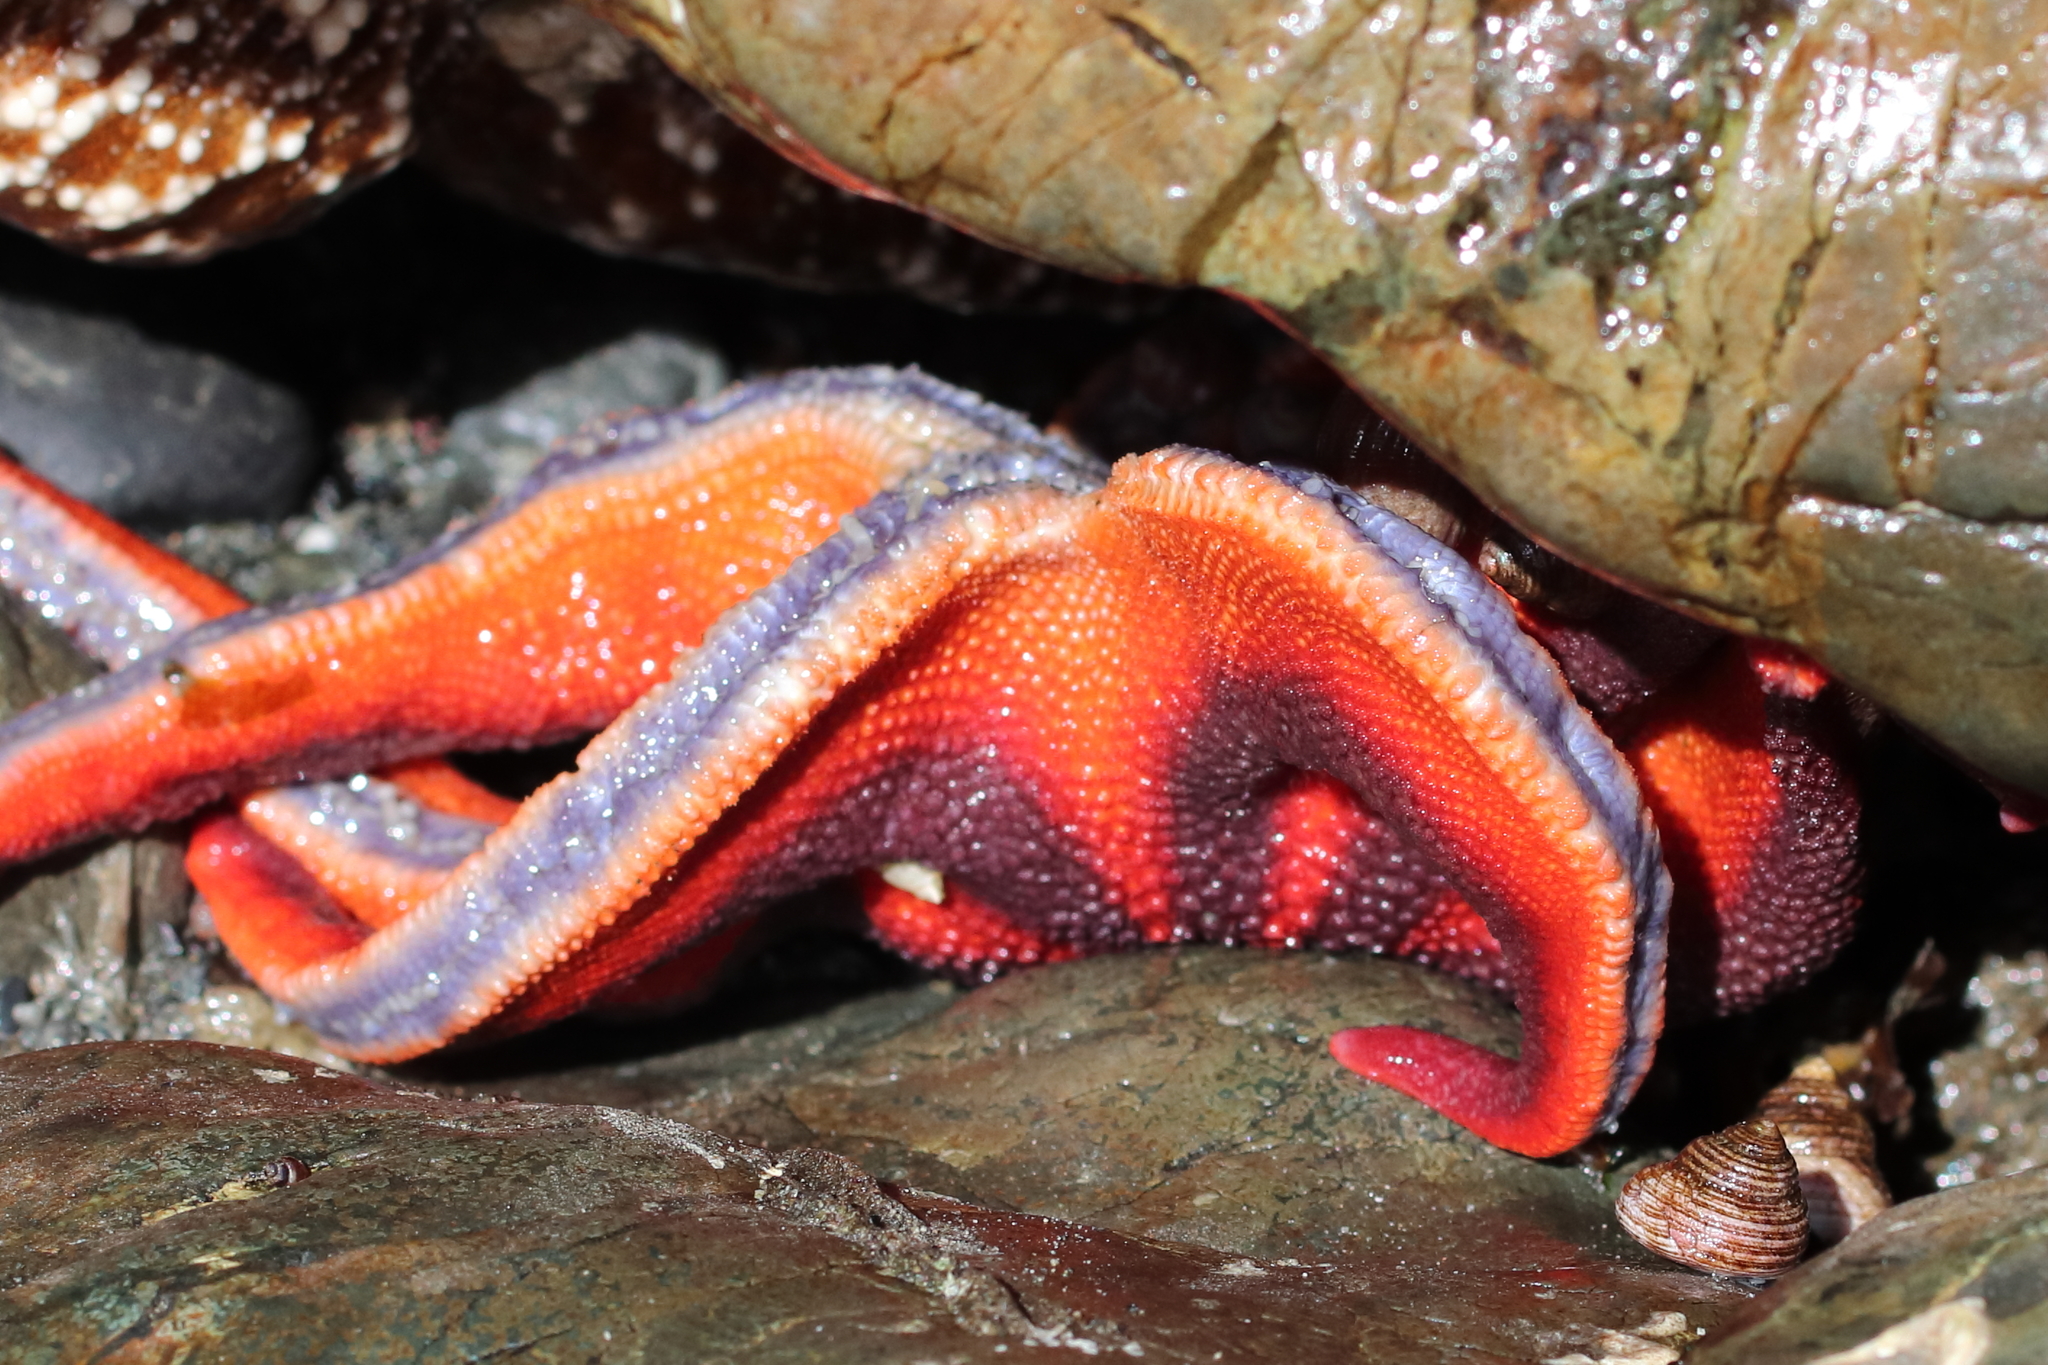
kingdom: Animalia
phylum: Echinodermata
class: Asteroidea
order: Valvatida
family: Solasteridae
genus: Solaster
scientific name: Solaster stimpsoni
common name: Orange sun star
